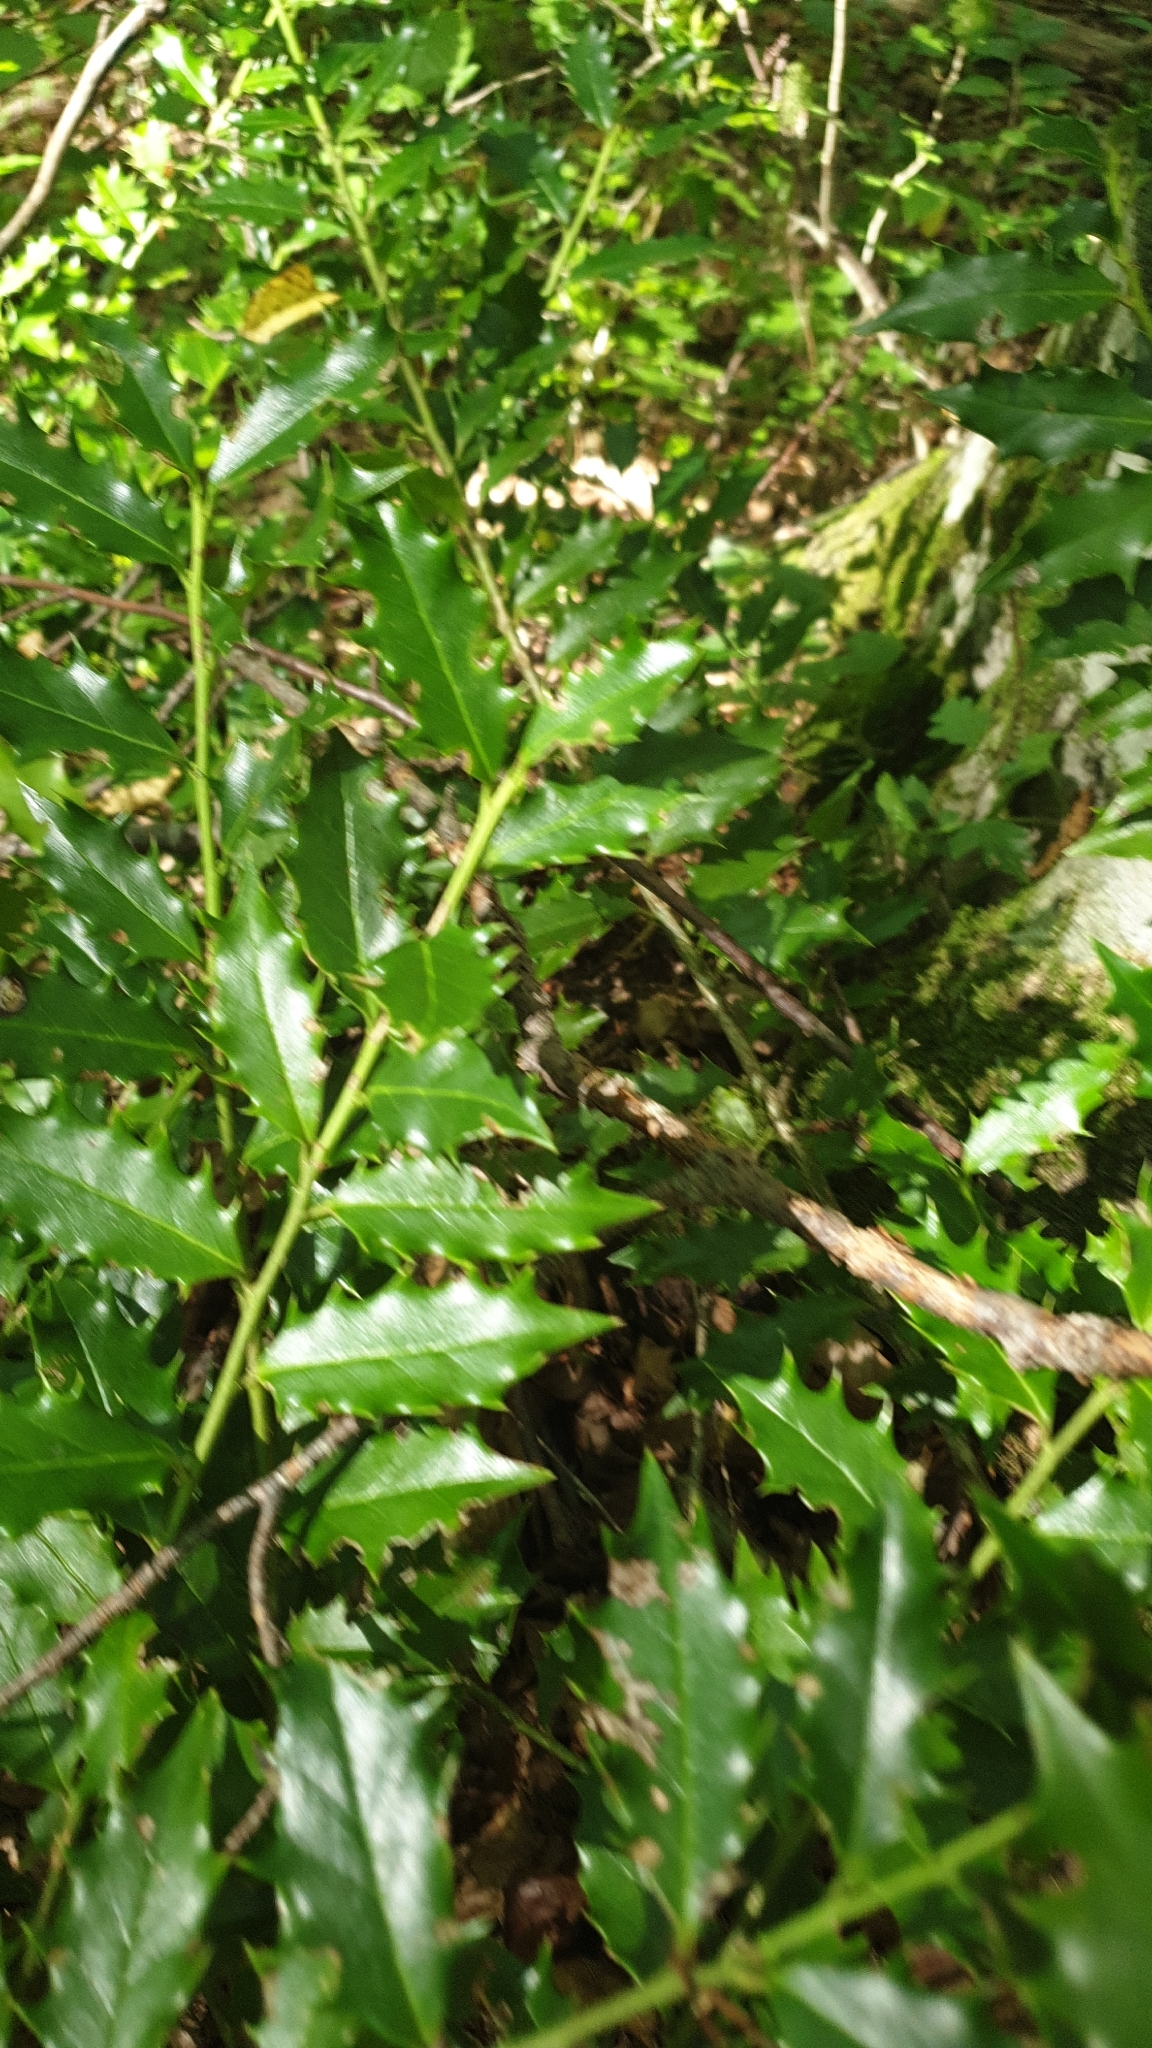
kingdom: Plantae
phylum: Tracheophyta
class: Magnoliopsida
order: Aquifoliales
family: Aquifoliaceae
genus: Ilex
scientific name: Ilex colchica
